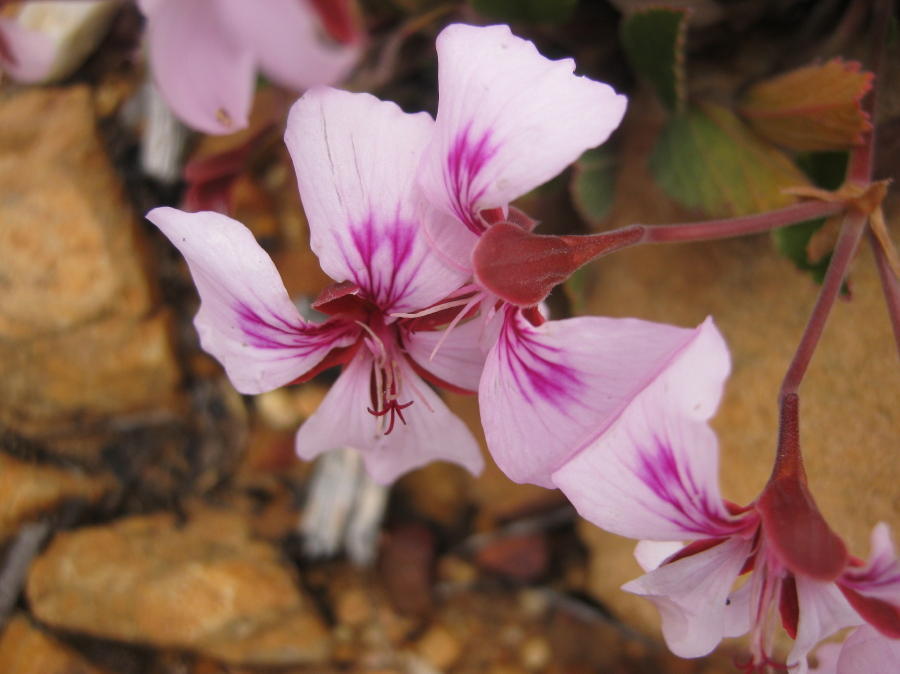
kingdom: Plantae
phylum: Tracheophyta
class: Magnoliopsida
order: Geraniales
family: Geraniaceae
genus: Pelargonium
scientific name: Pelargonium ovale
